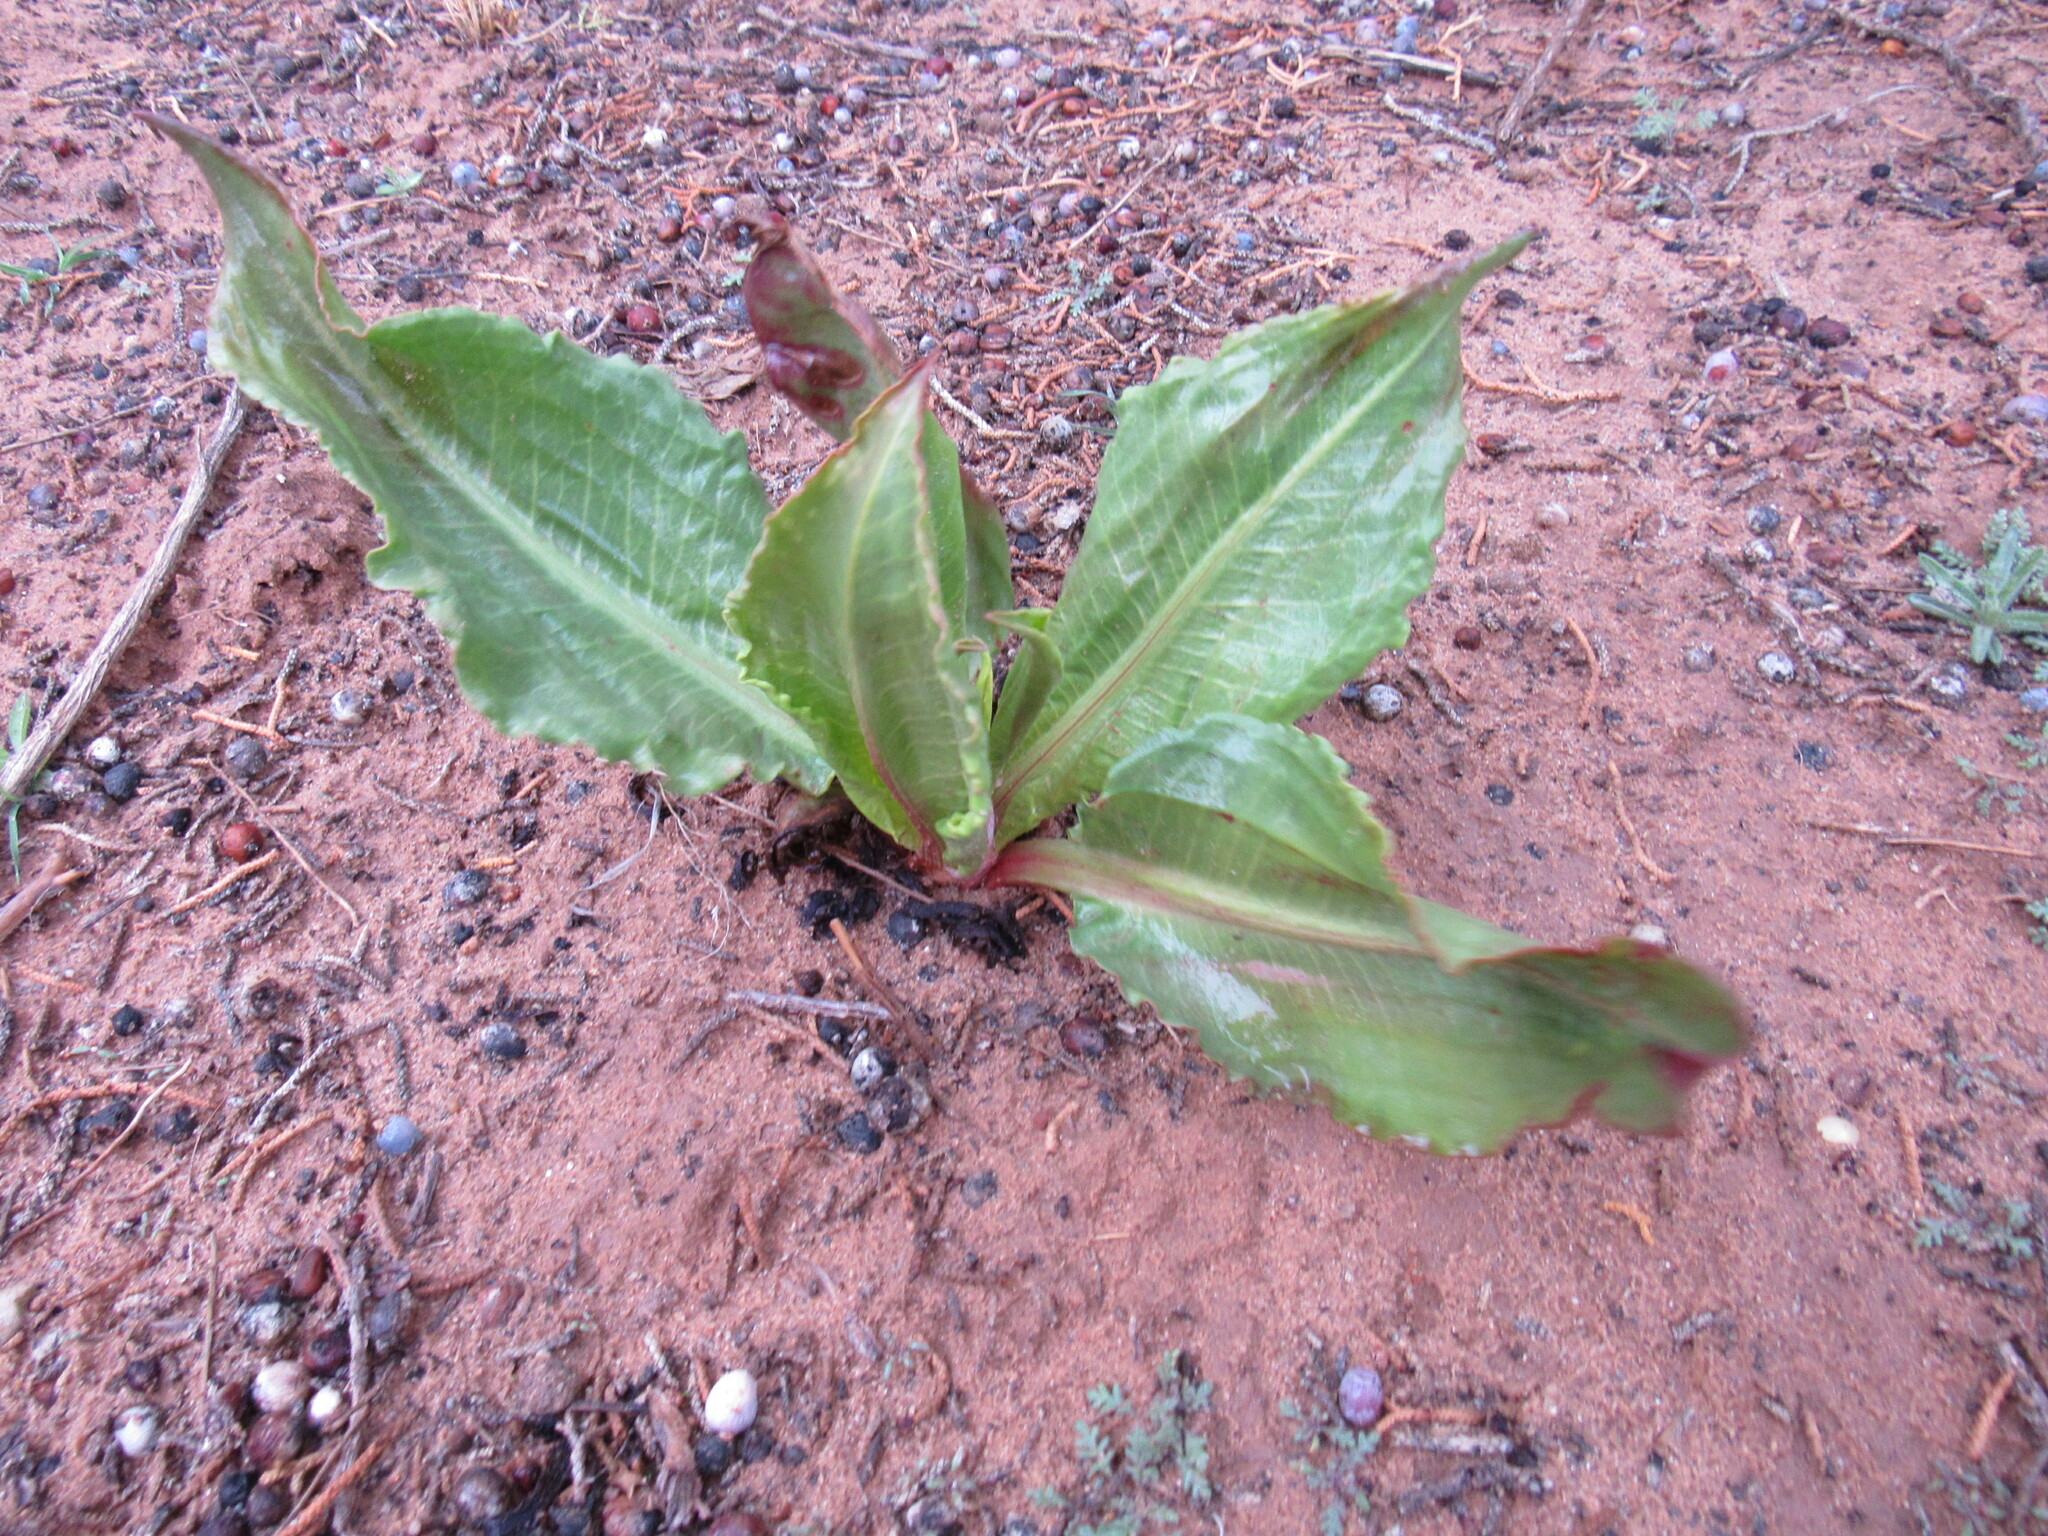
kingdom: Plantae
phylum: Tracheophyta
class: Magnoliopsida
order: Caryophyllales
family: Polygonaceae
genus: Rumex
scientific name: Rumex hymenosepalus
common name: Ganagra
